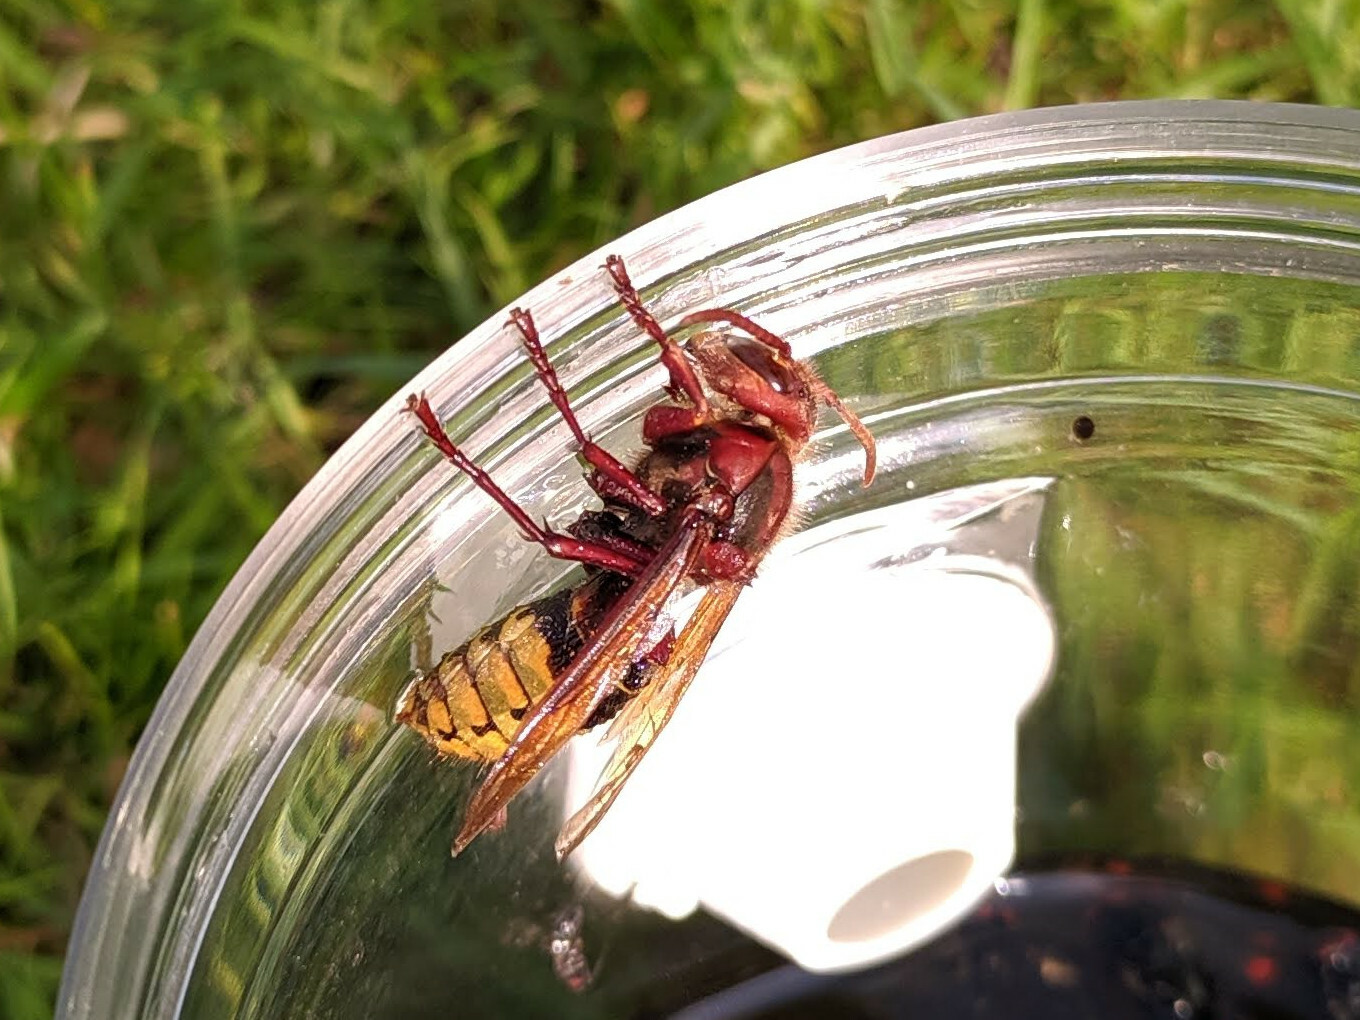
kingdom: Animalia
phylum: Arthropoda
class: Insecta
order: Hymenoptera
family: Vespidae
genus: Vespa
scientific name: Vespa crabro
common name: Hornet
